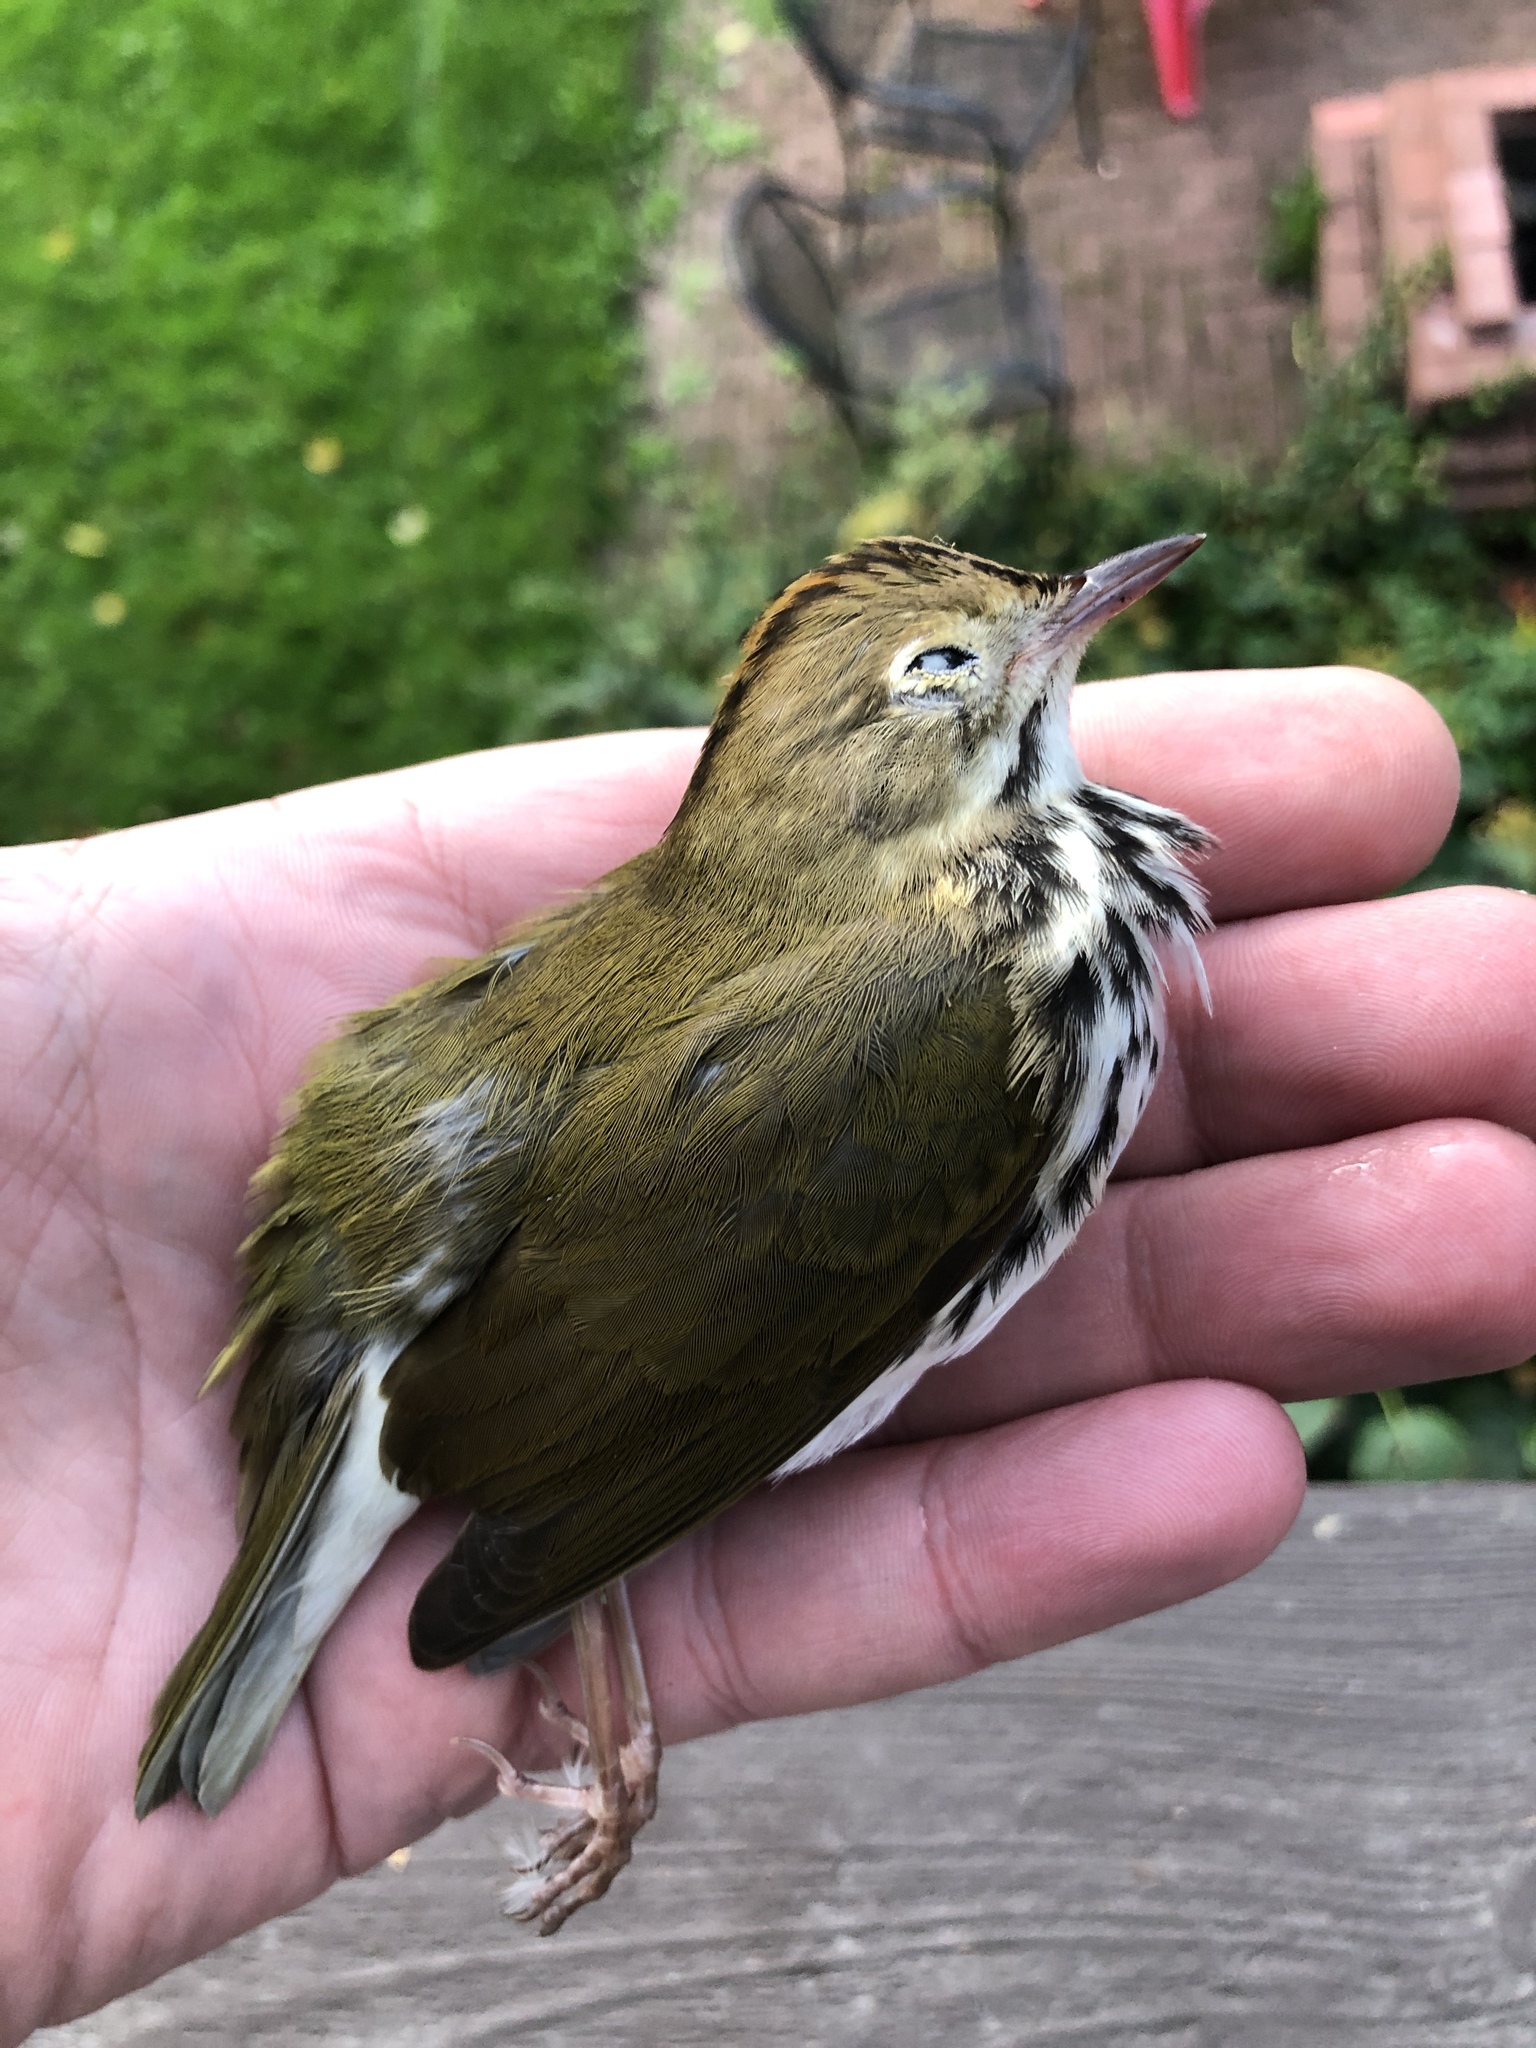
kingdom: Animalia
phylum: Chordata
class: Aves
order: Passeriformes
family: Parulidae
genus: Seiurus
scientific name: Seiurus aurocapilla
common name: Ovenbird
